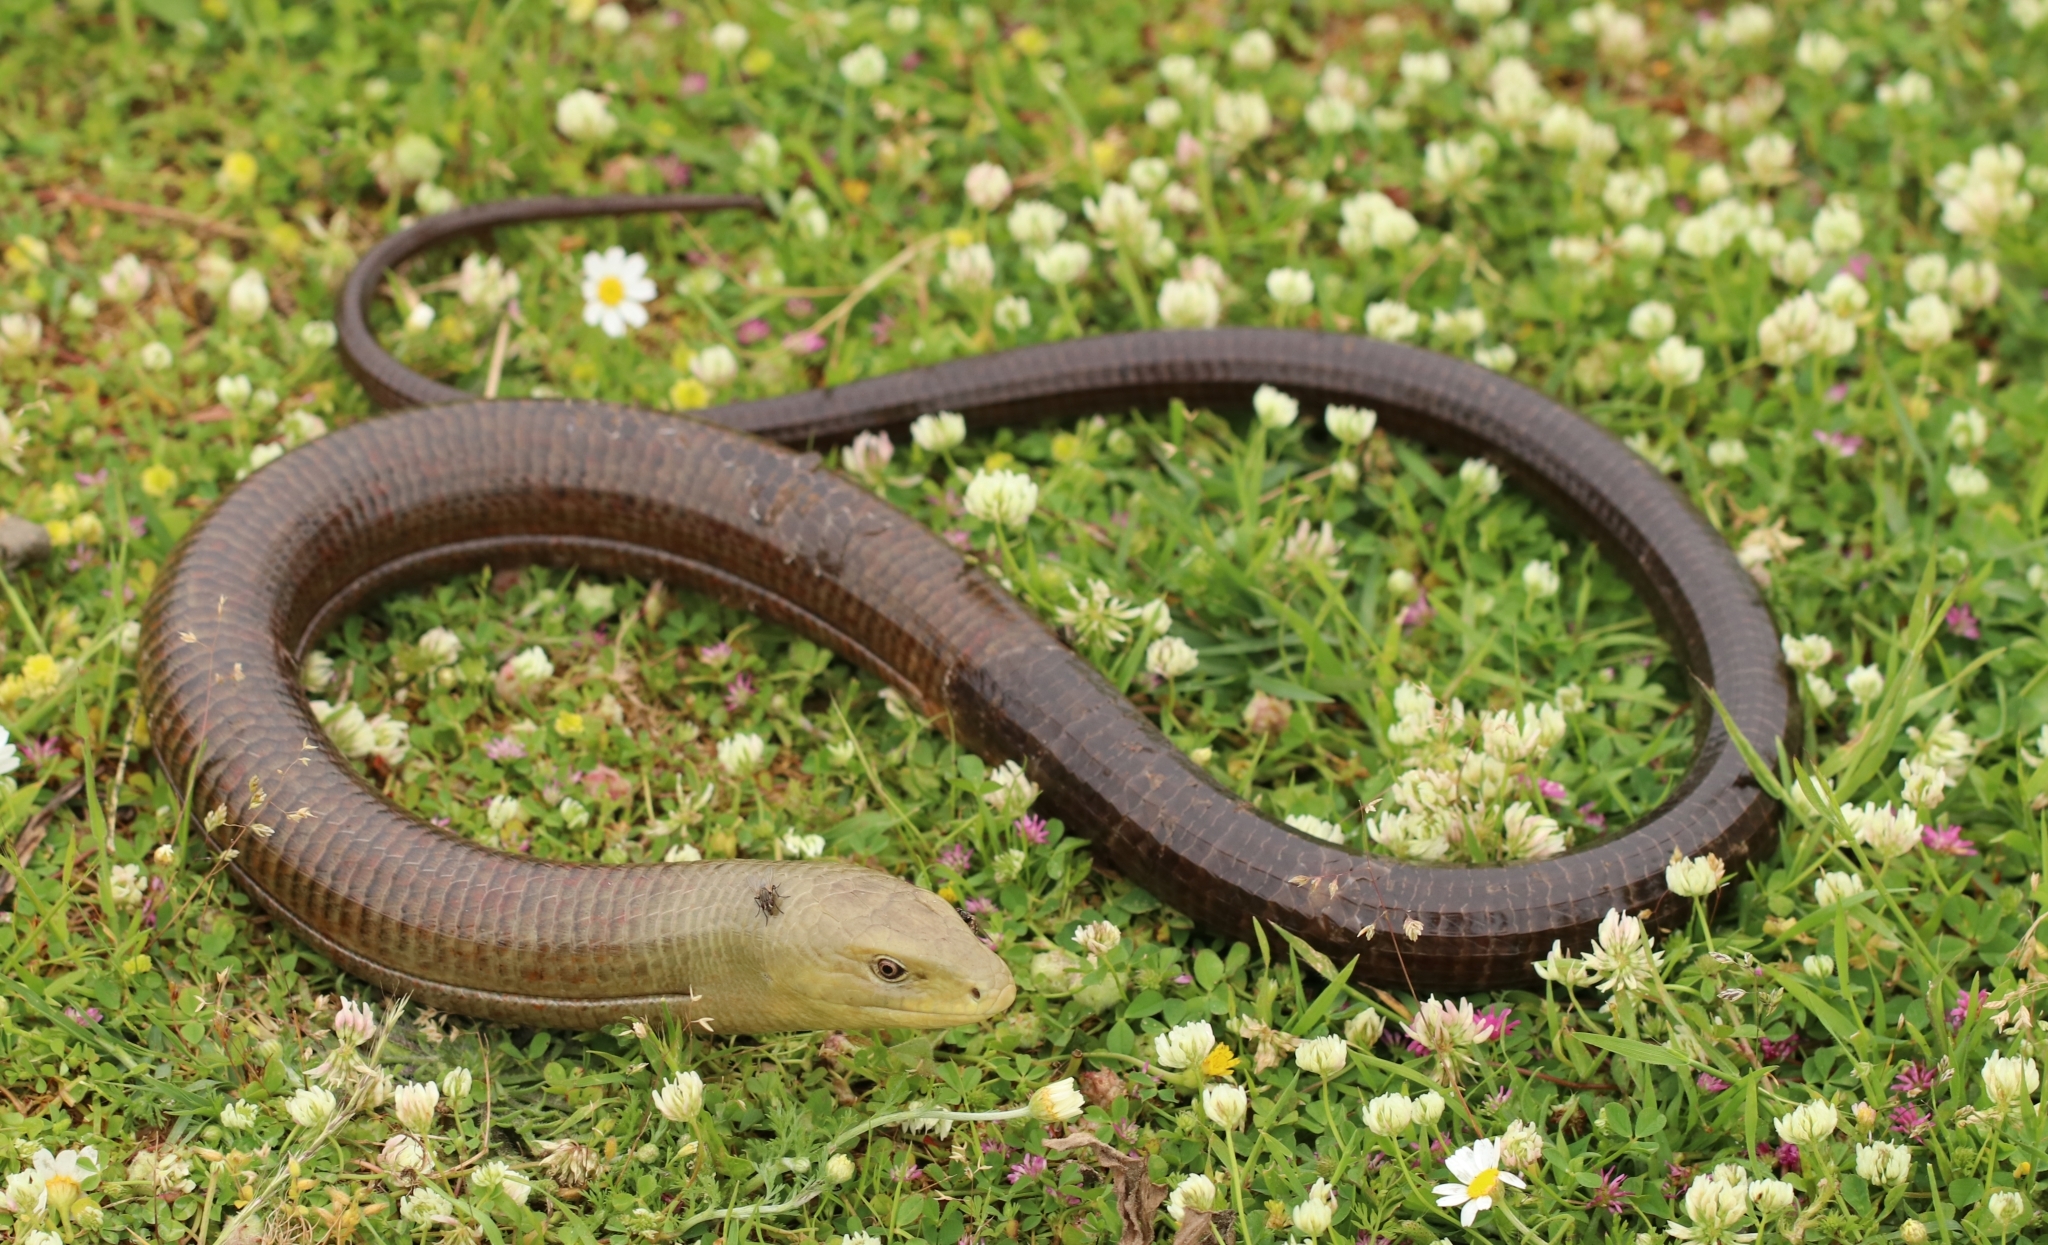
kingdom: Animalia
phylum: Chordata
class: Squamata
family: Anguidae
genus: Pseudopus
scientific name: Pseudopus apodus
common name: European glass lizard
